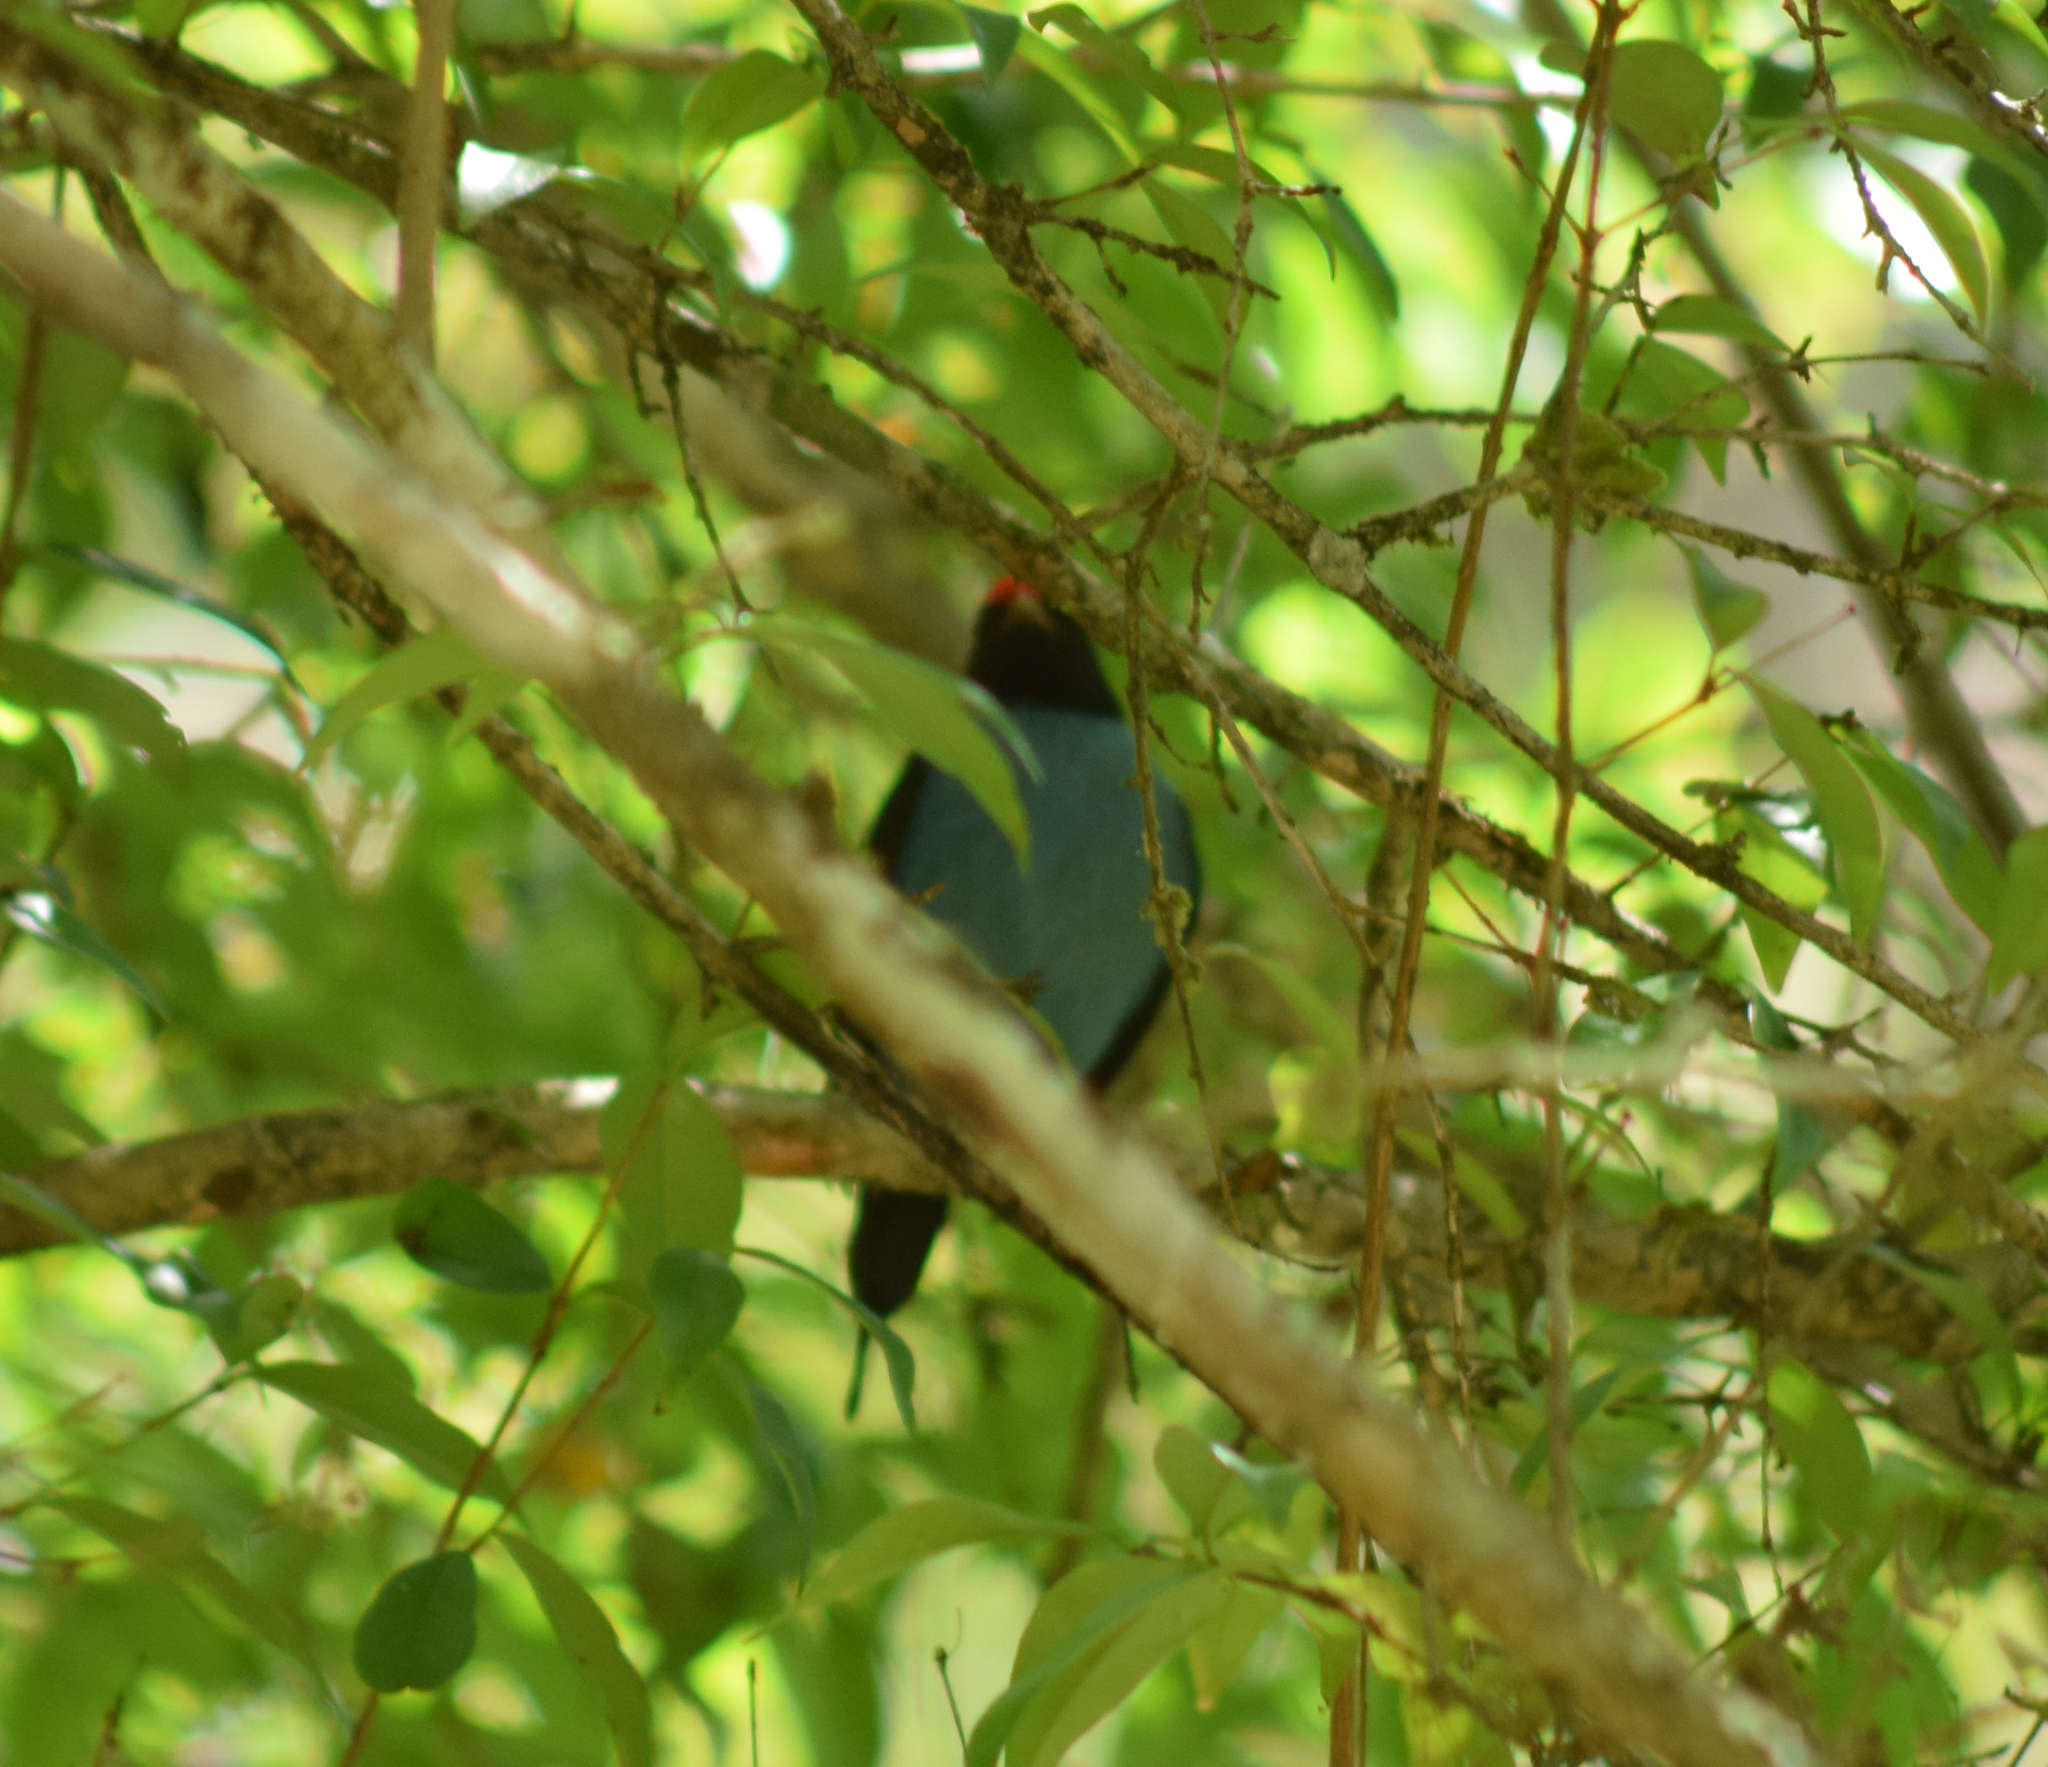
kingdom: Animalia
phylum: Chordata
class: Aves
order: Passeriformes
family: Pipridae
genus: Chiroxiphia
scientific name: Chiroxiphia caudata
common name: Blue manakin
